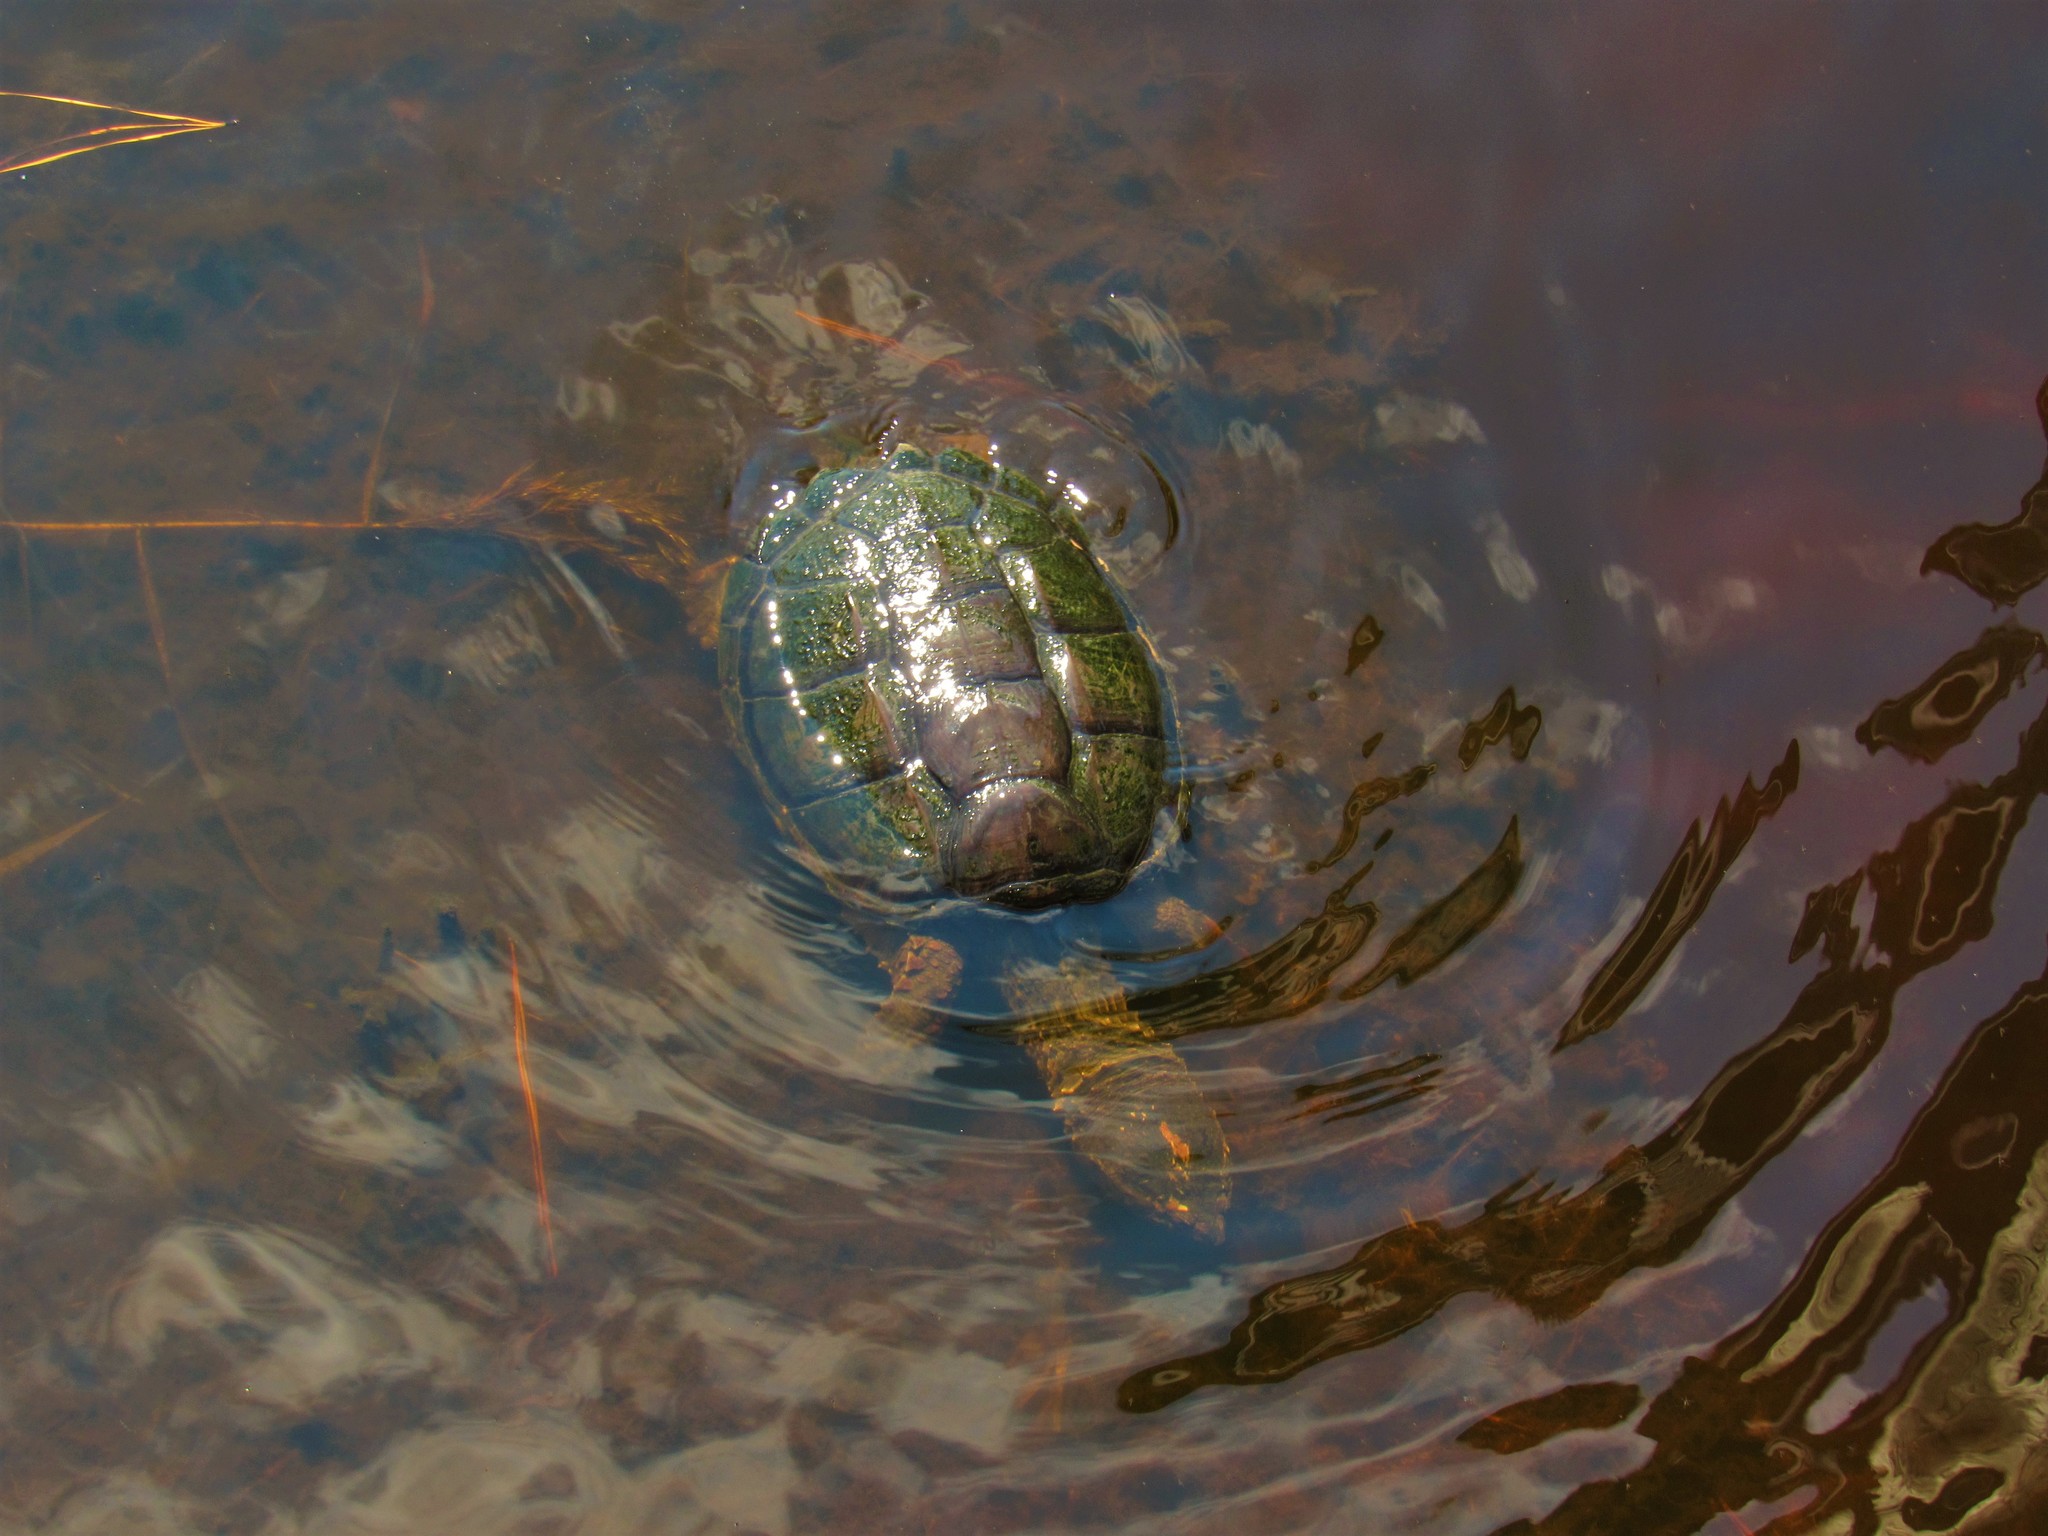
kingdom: Animalia
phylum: Chordata
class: Testudines
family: Chelydridae
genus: Chelydra
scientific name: Chelydra serpentina
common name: Common snapping turtle
